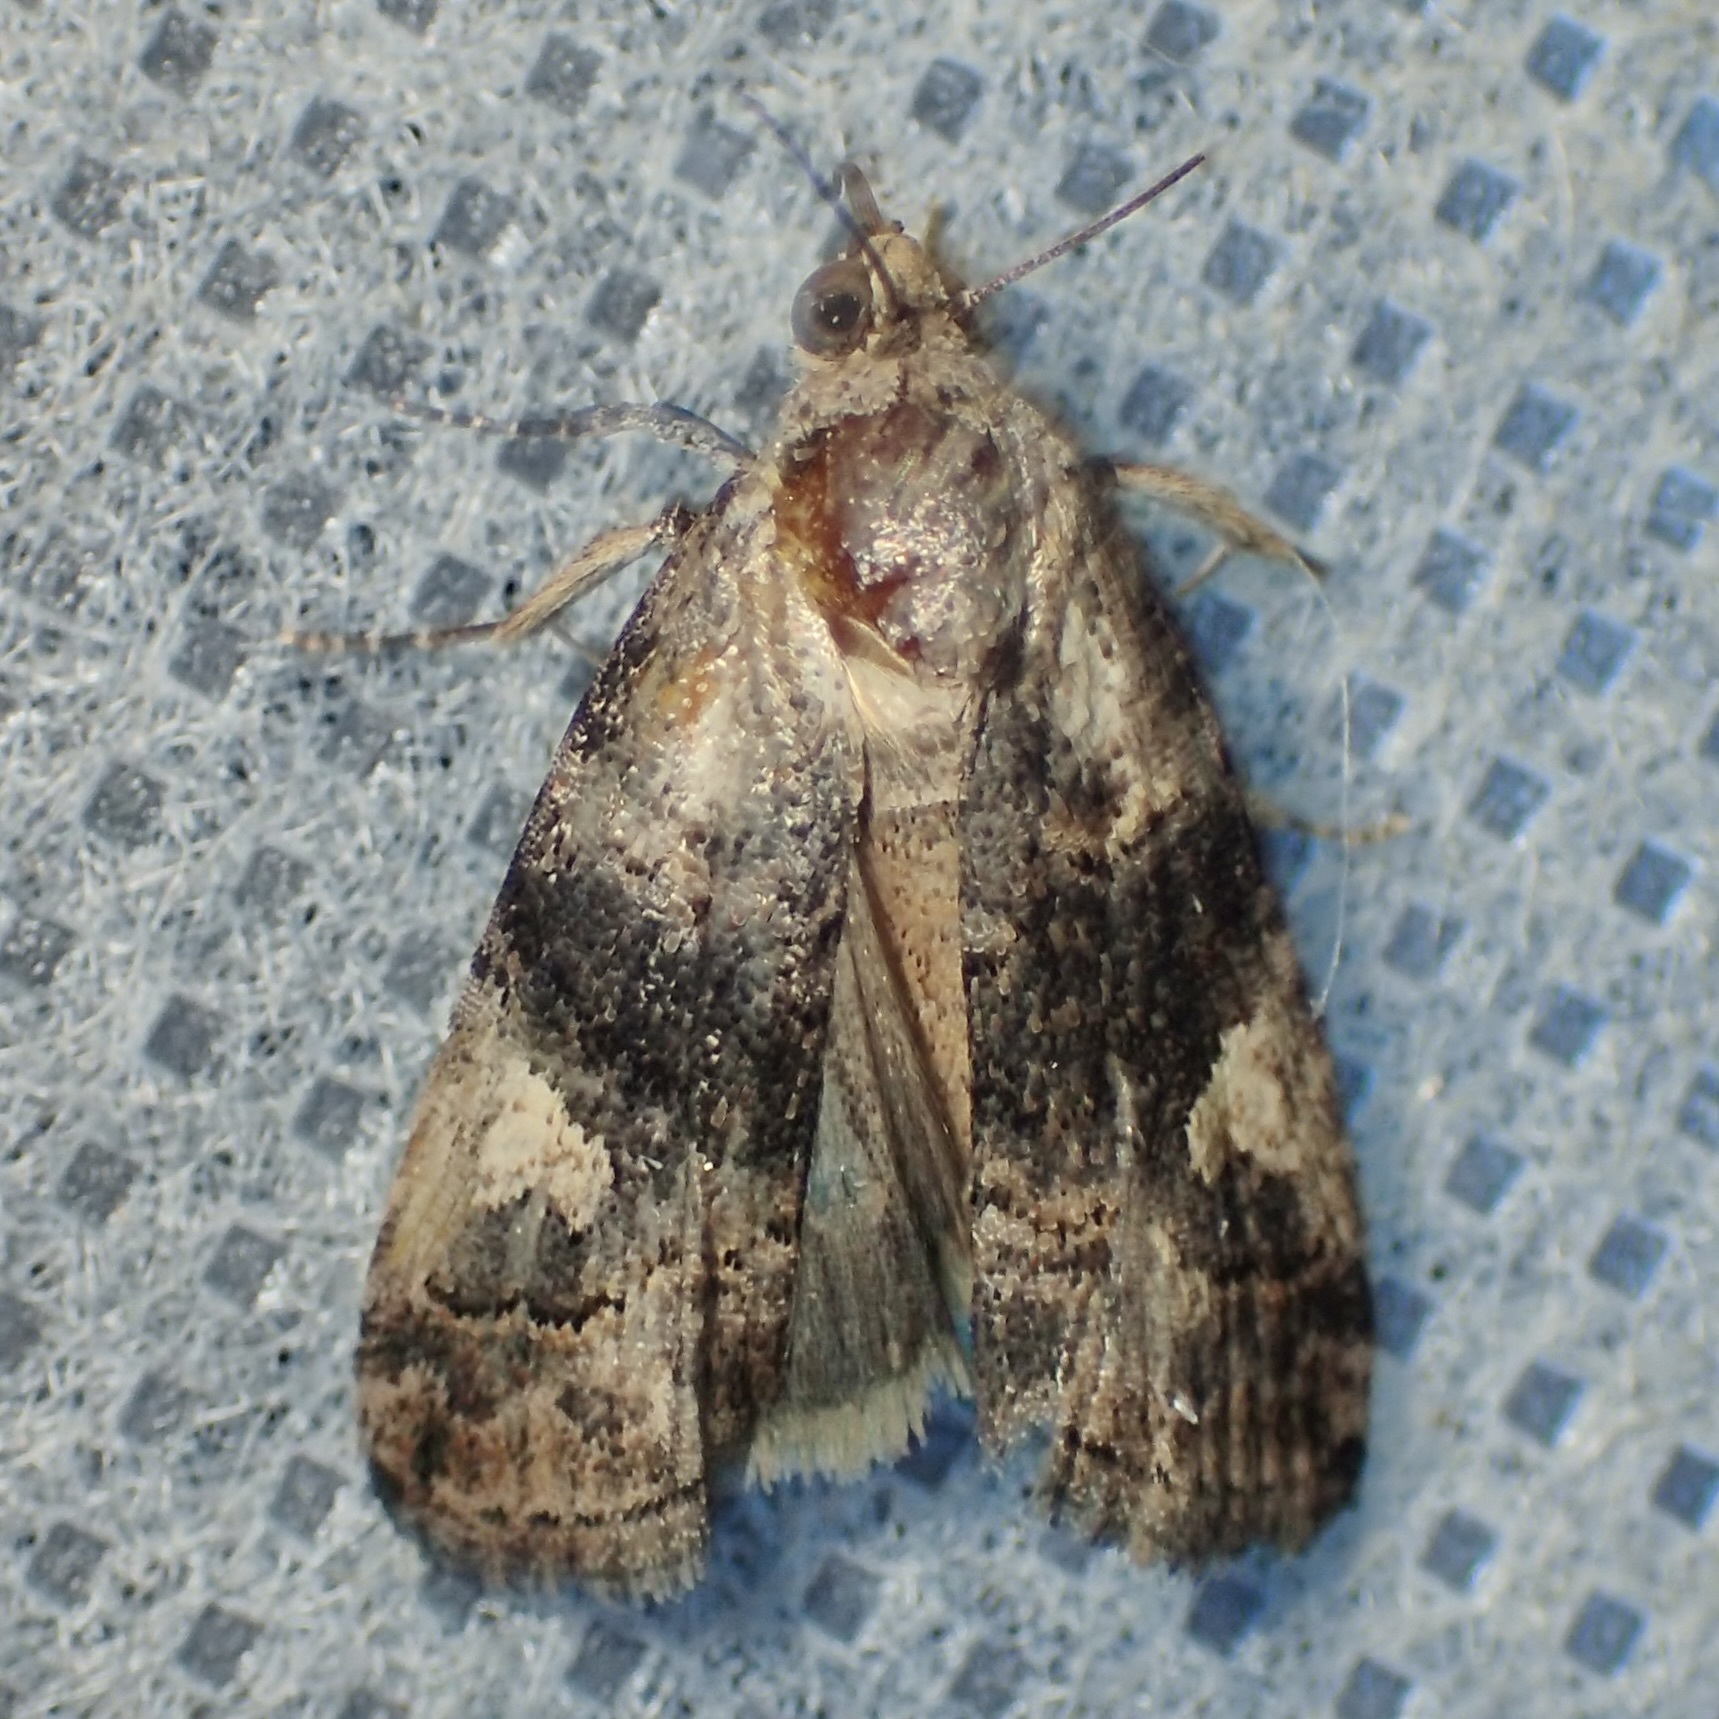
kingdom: Animalia
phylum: Arthropoda
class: Insecta
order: Lepidoptera
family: Noctuidae
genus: Metaponpneumata
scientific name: Metaponpneumata rogenhoferi
